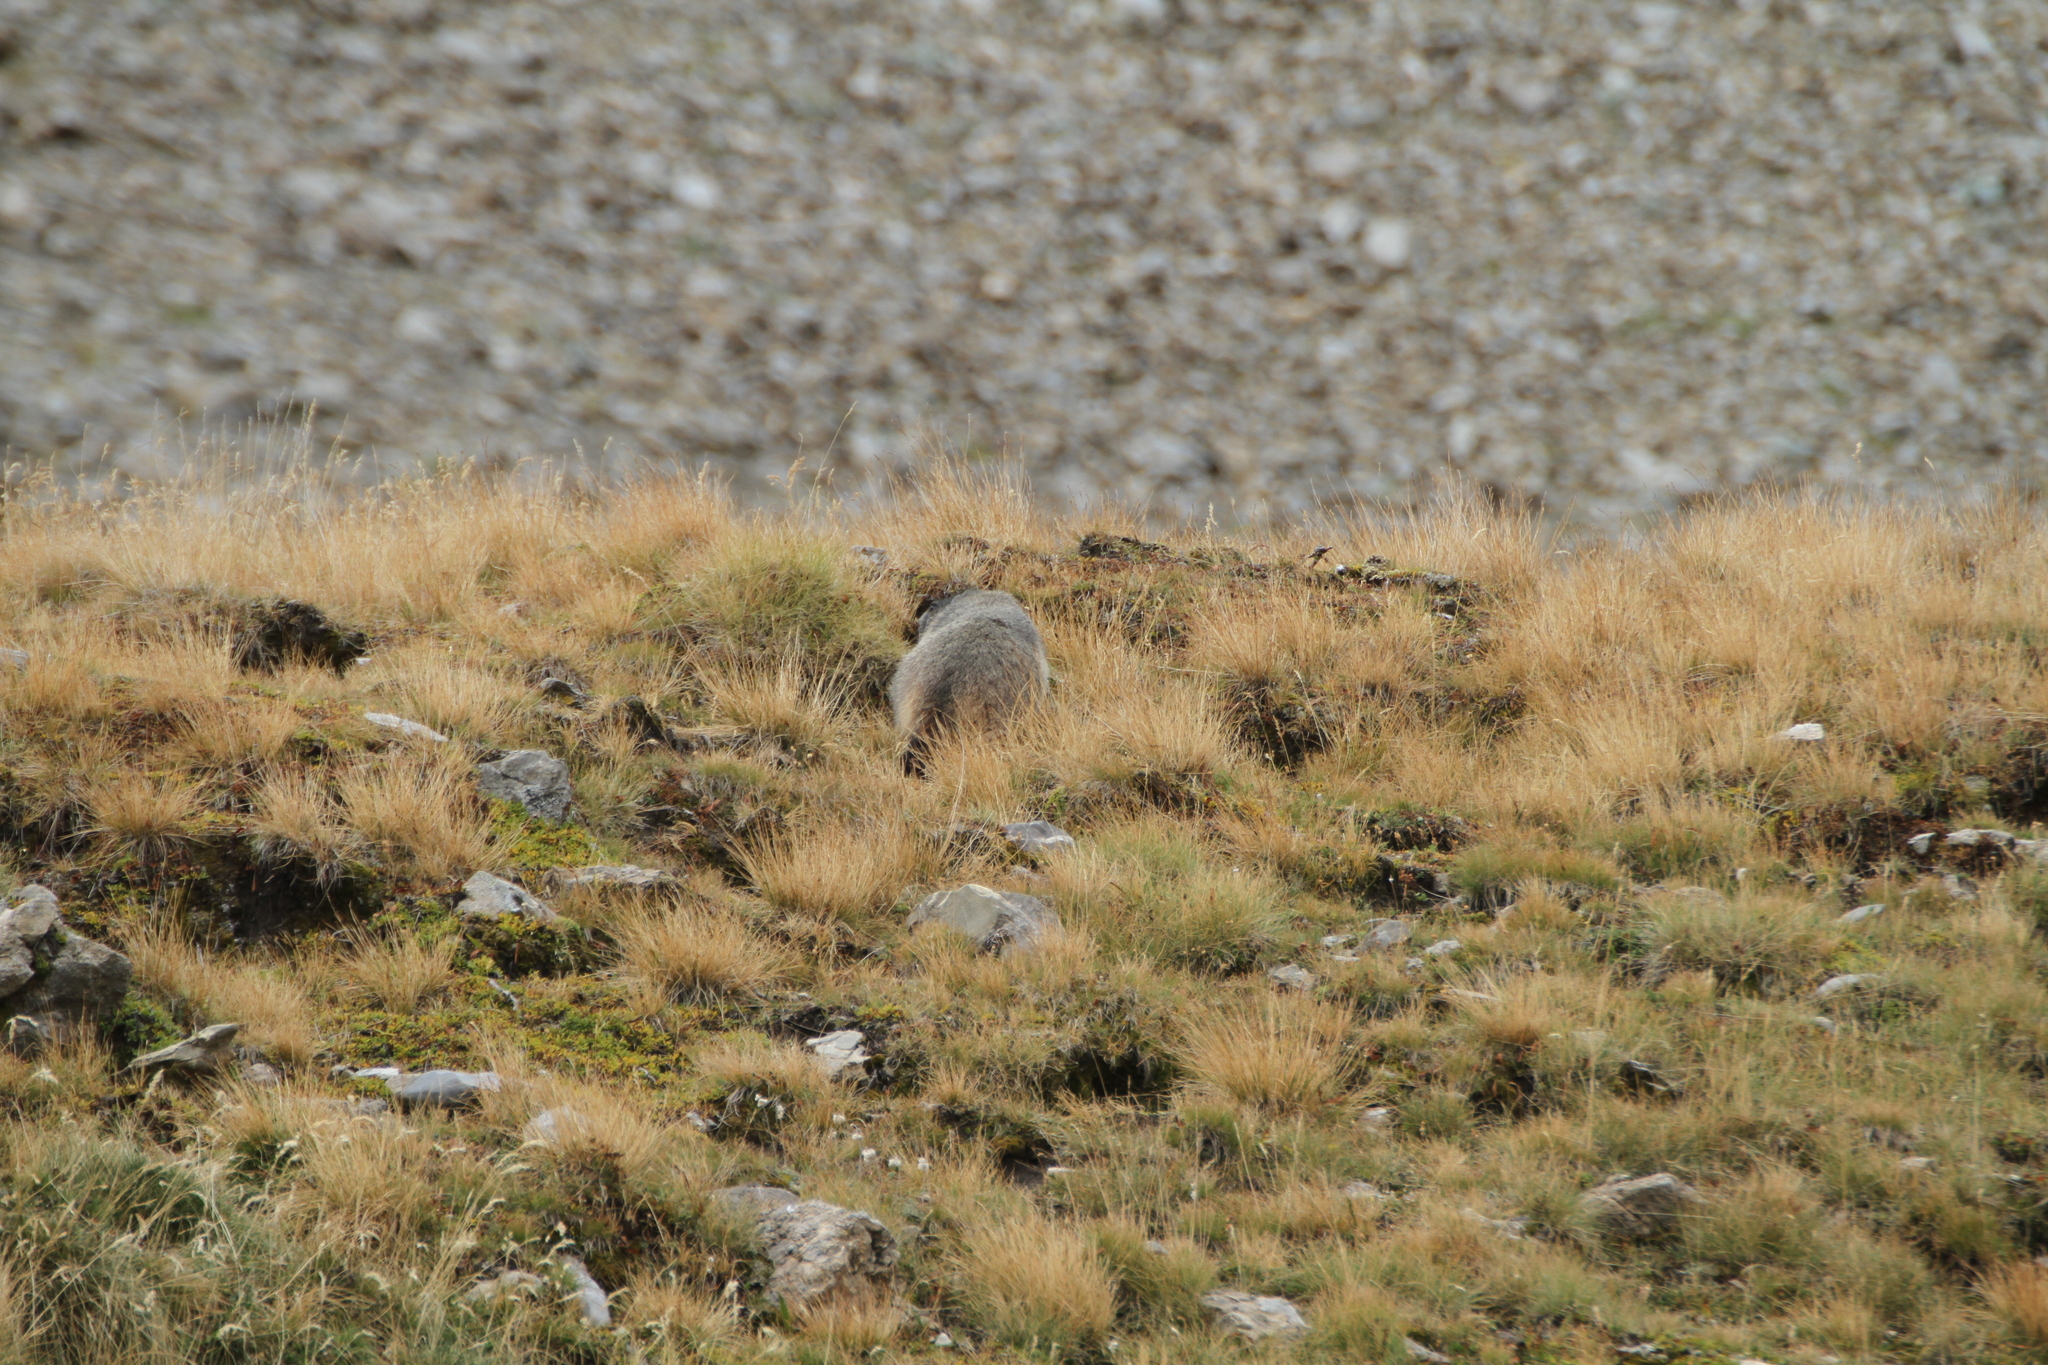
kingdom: Animalia
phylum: Chordata
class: Mammalia
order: Rodentia
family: Sciuridae
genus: Marmota
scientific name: Marmota marmota
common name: Alpine marmot
